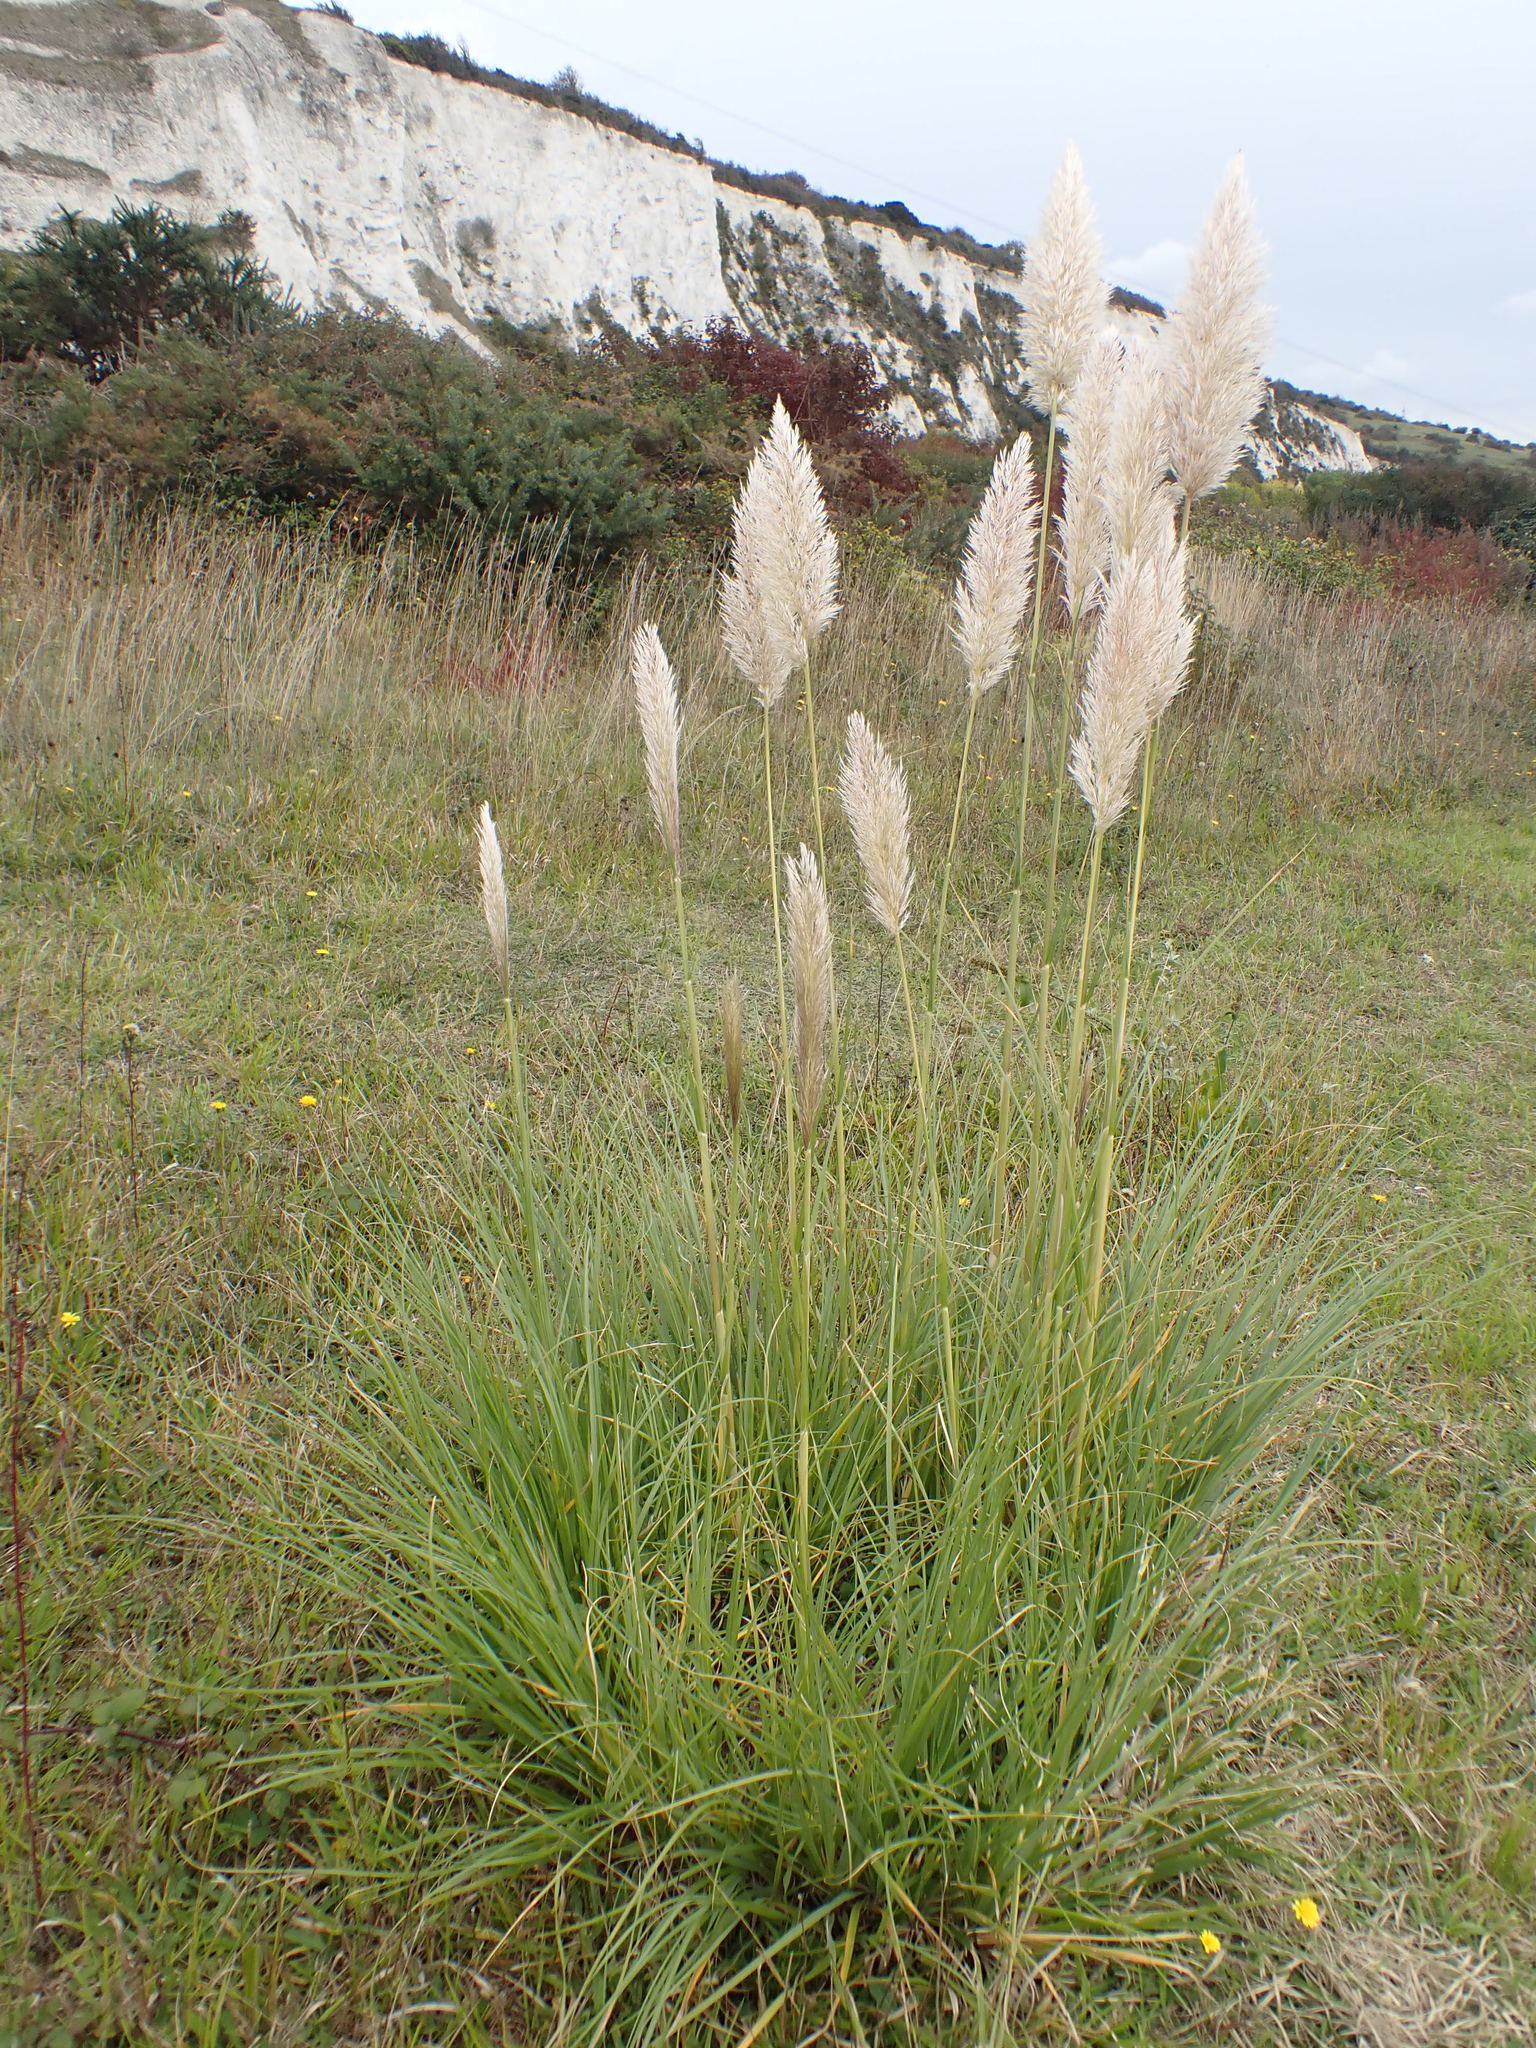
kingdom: Plantae
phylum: Tracheophyta
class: Liliopsida
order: Poales
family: Poaceae
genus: Cortaderia
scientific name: Cortaderia selloana
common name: Uruguayan pampas grass
